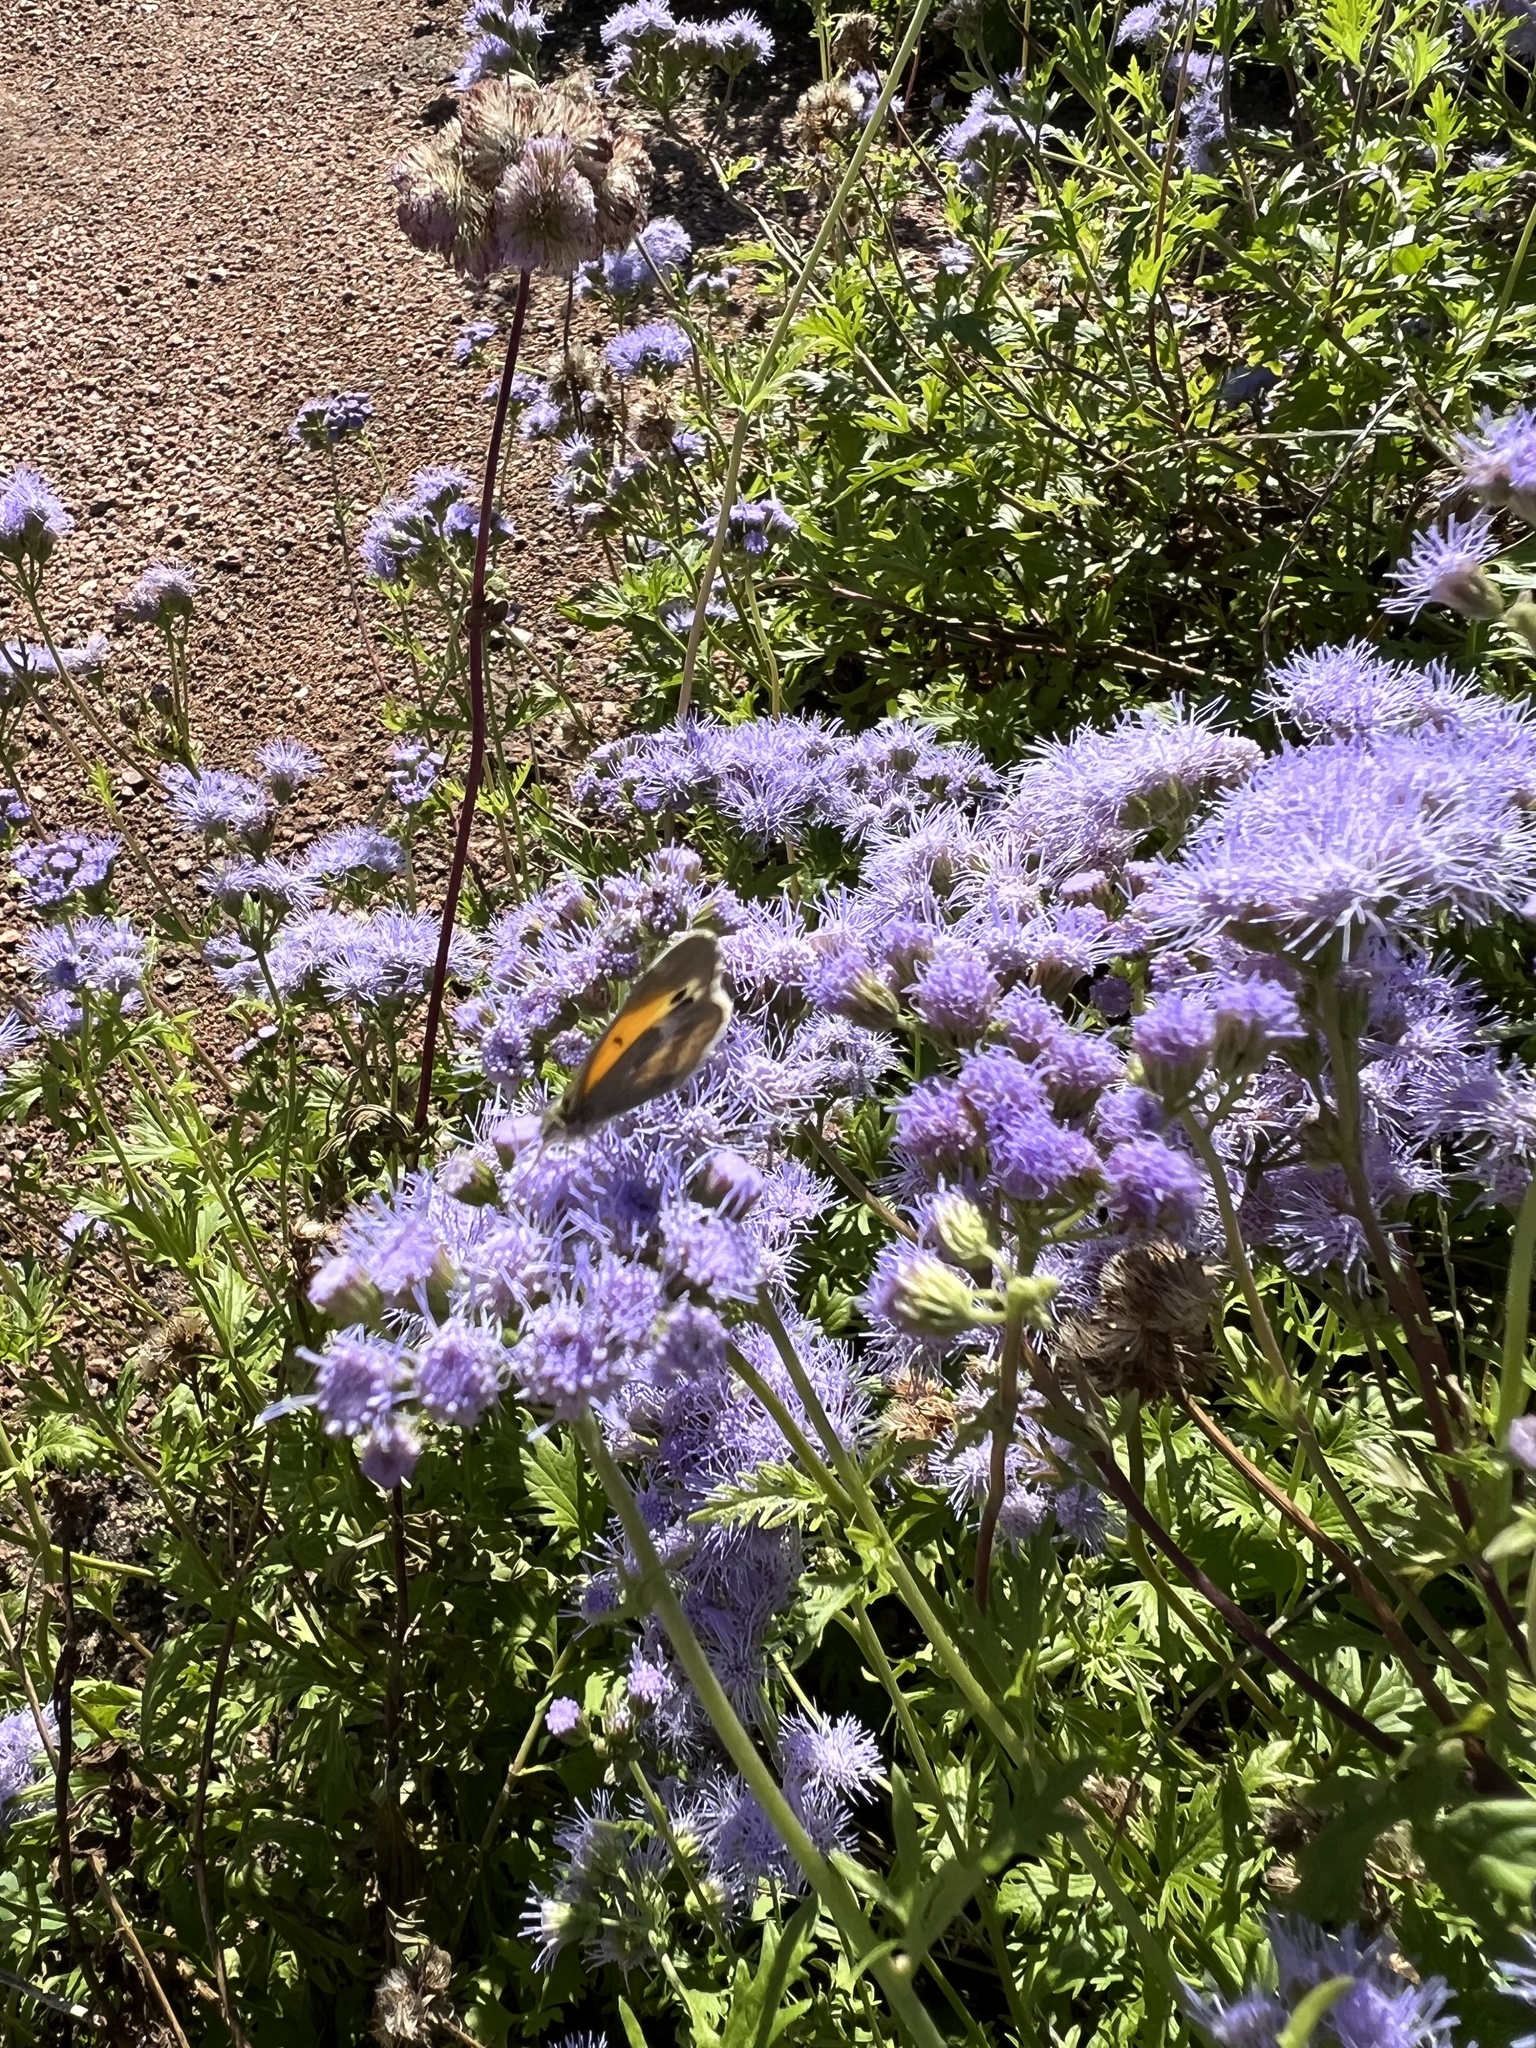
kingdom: Animalia
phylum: Arthropoda
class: Insecta
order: Lepidoptera
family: Pieridae
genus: Nathalis
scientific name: Nathalis iole
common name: Dainty sulphur
